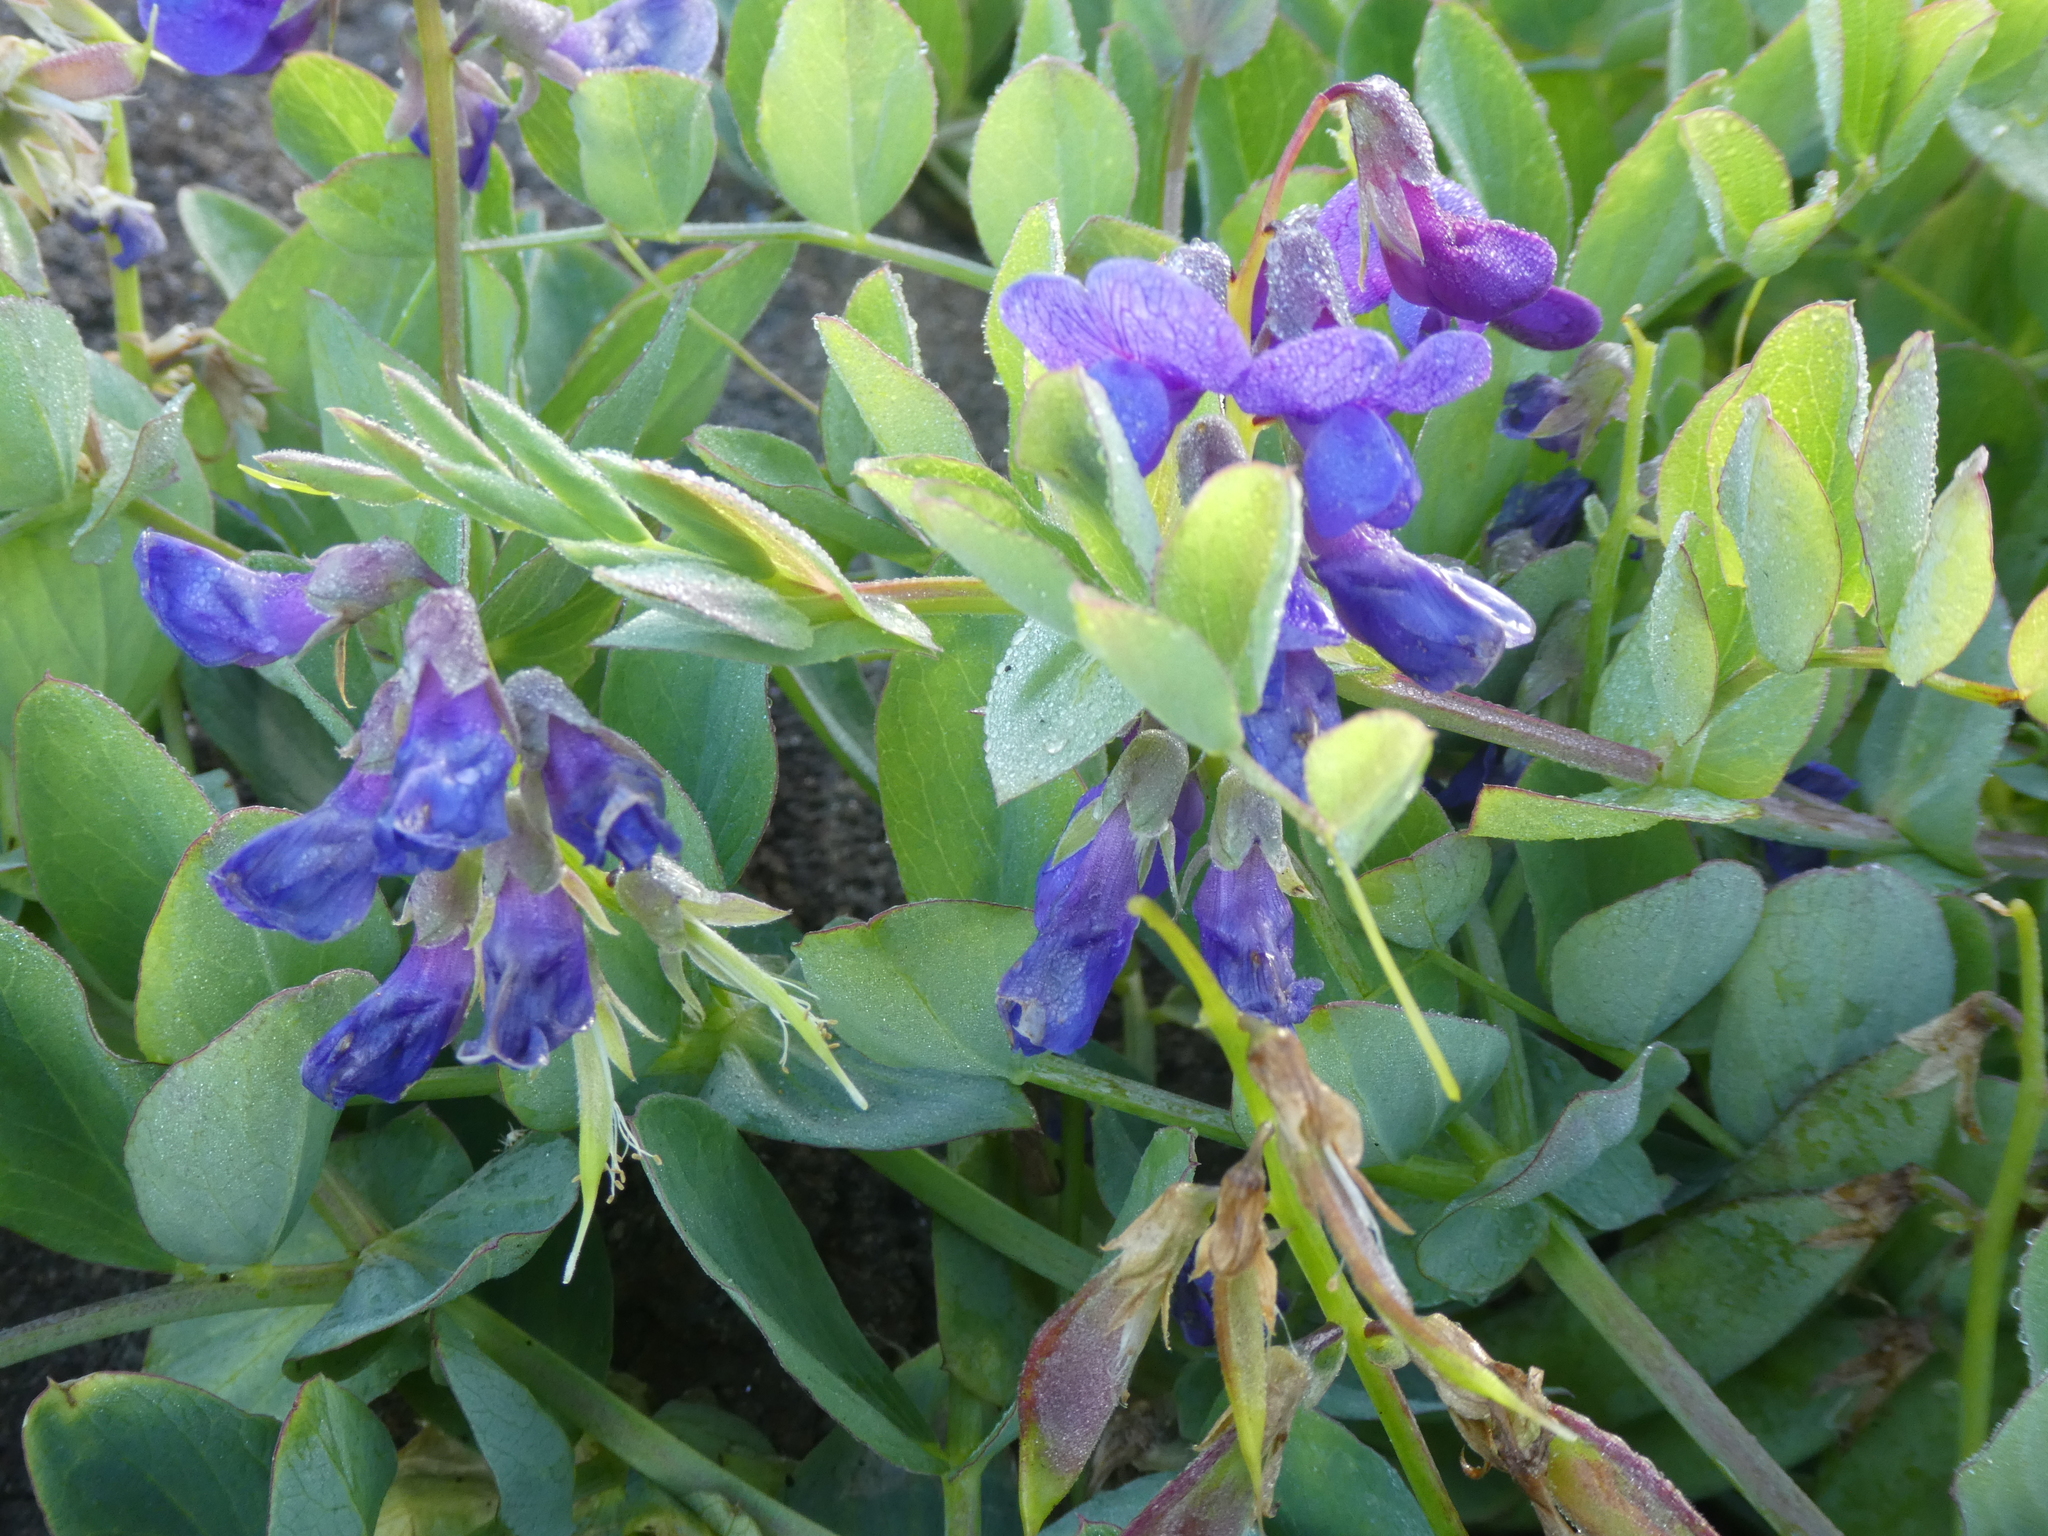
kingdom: Plantae
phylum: Tracheophyta
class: Magnoliopsida
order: Fabales
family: Fabaceae
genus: Lathyrus
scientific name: Lathyrus japonicus
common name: Sea pea
